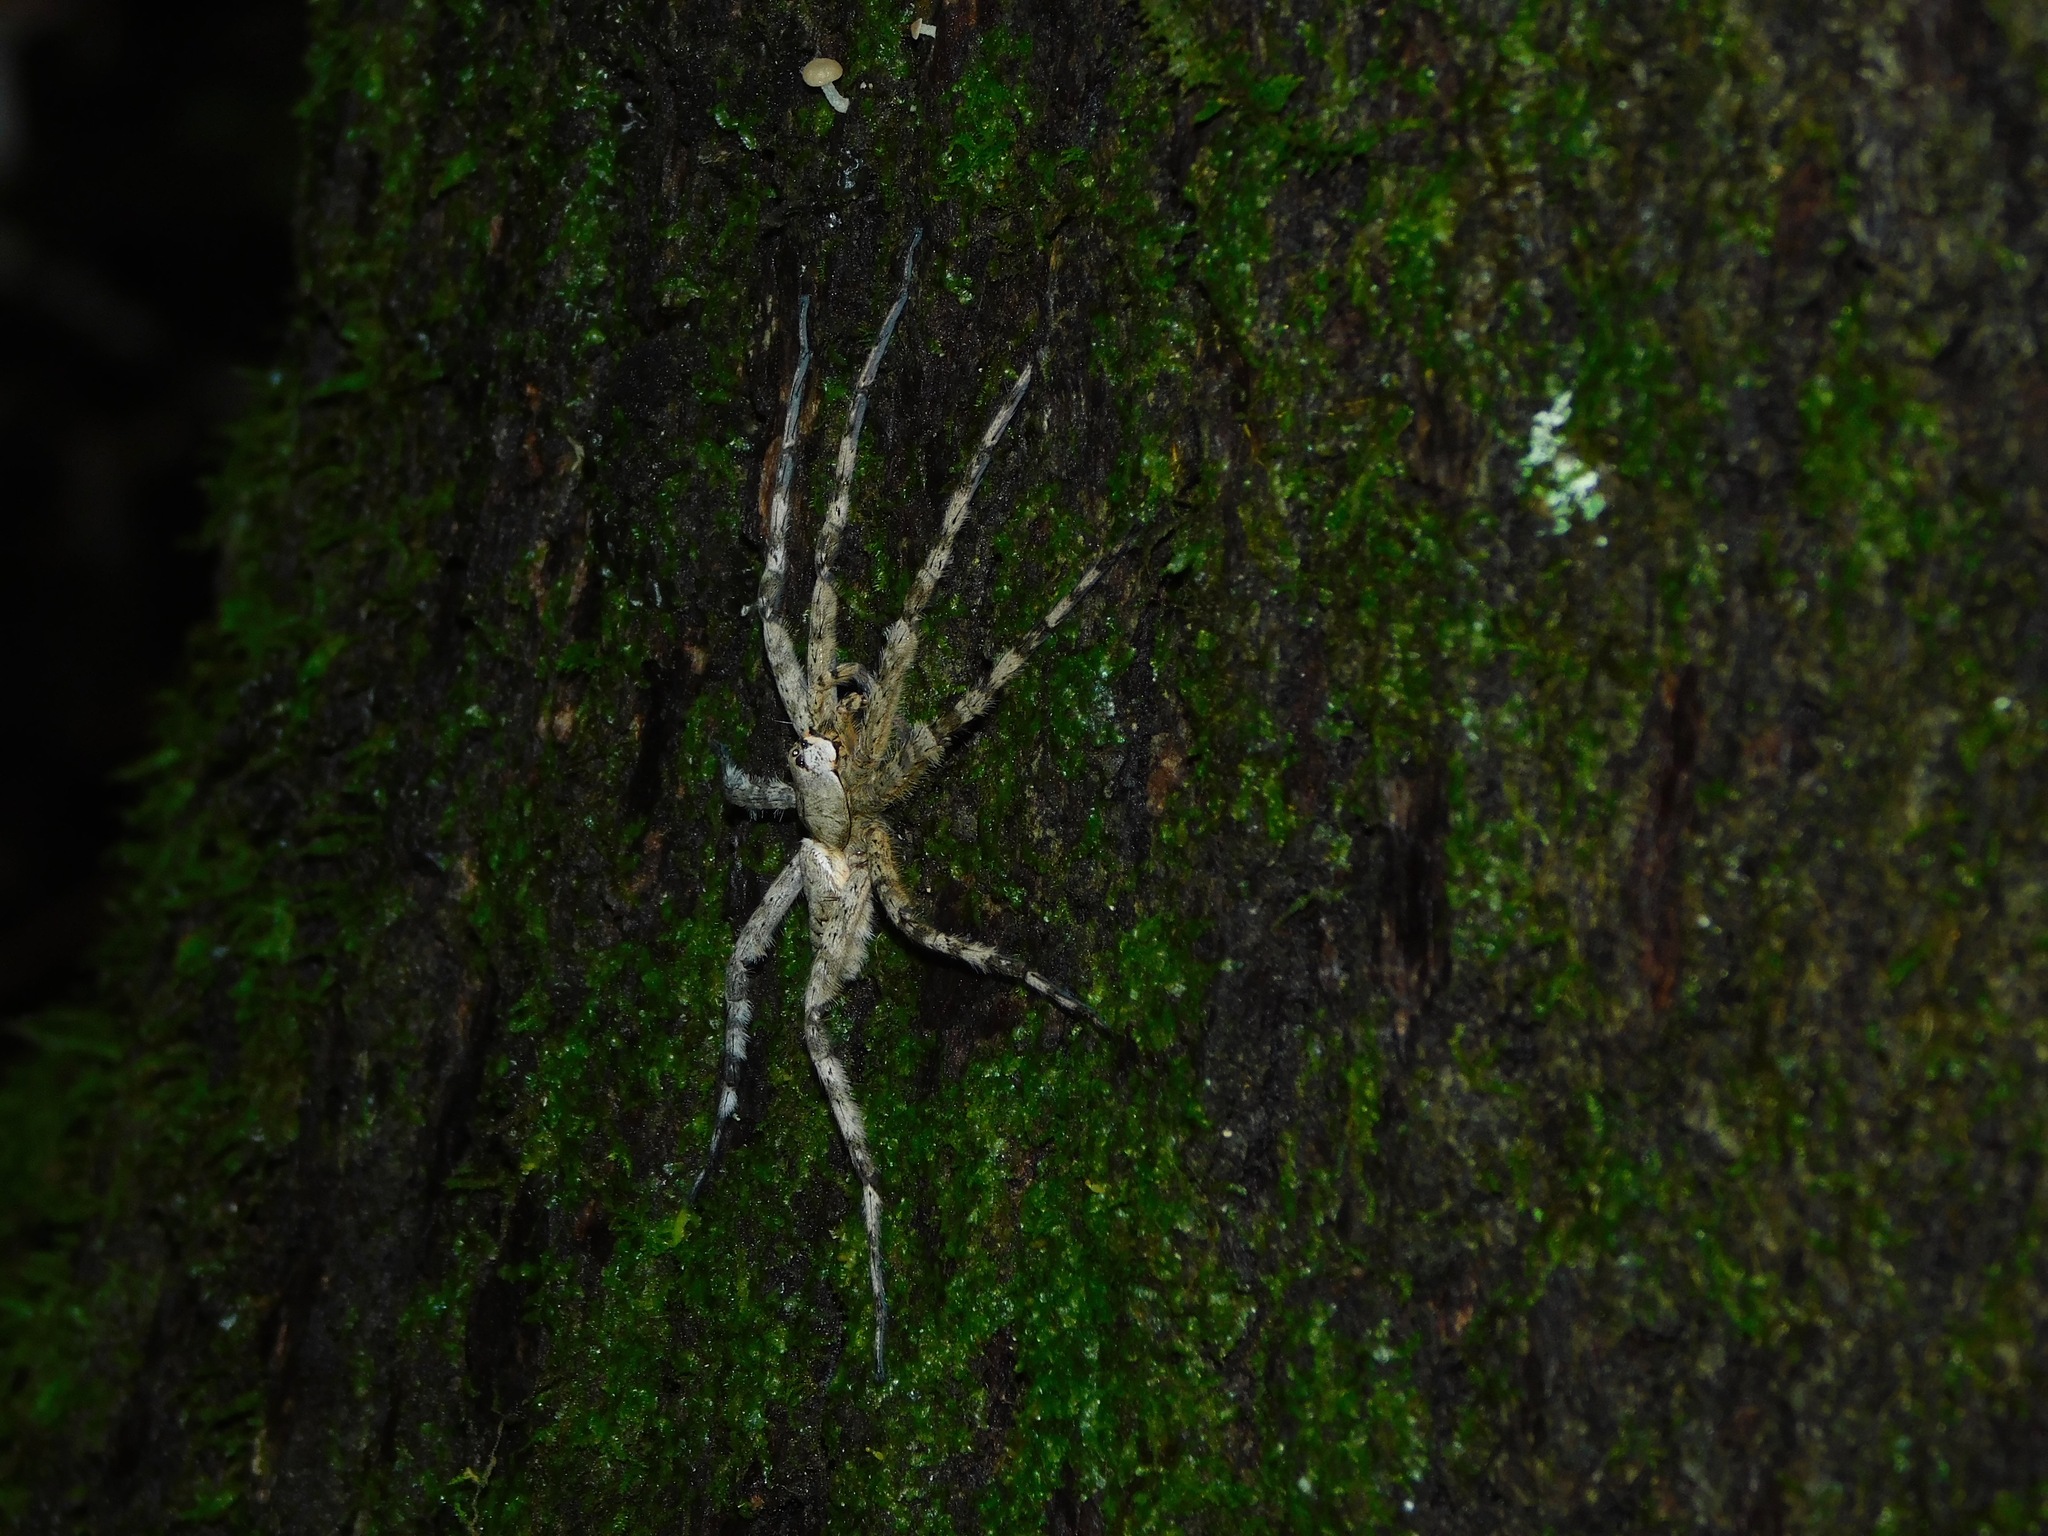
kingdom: Animalia
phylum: Arthropoda
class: Arachnida
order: Araneae
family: Pisauridae
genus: Dolomedes
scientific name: Dolomedes albineus
